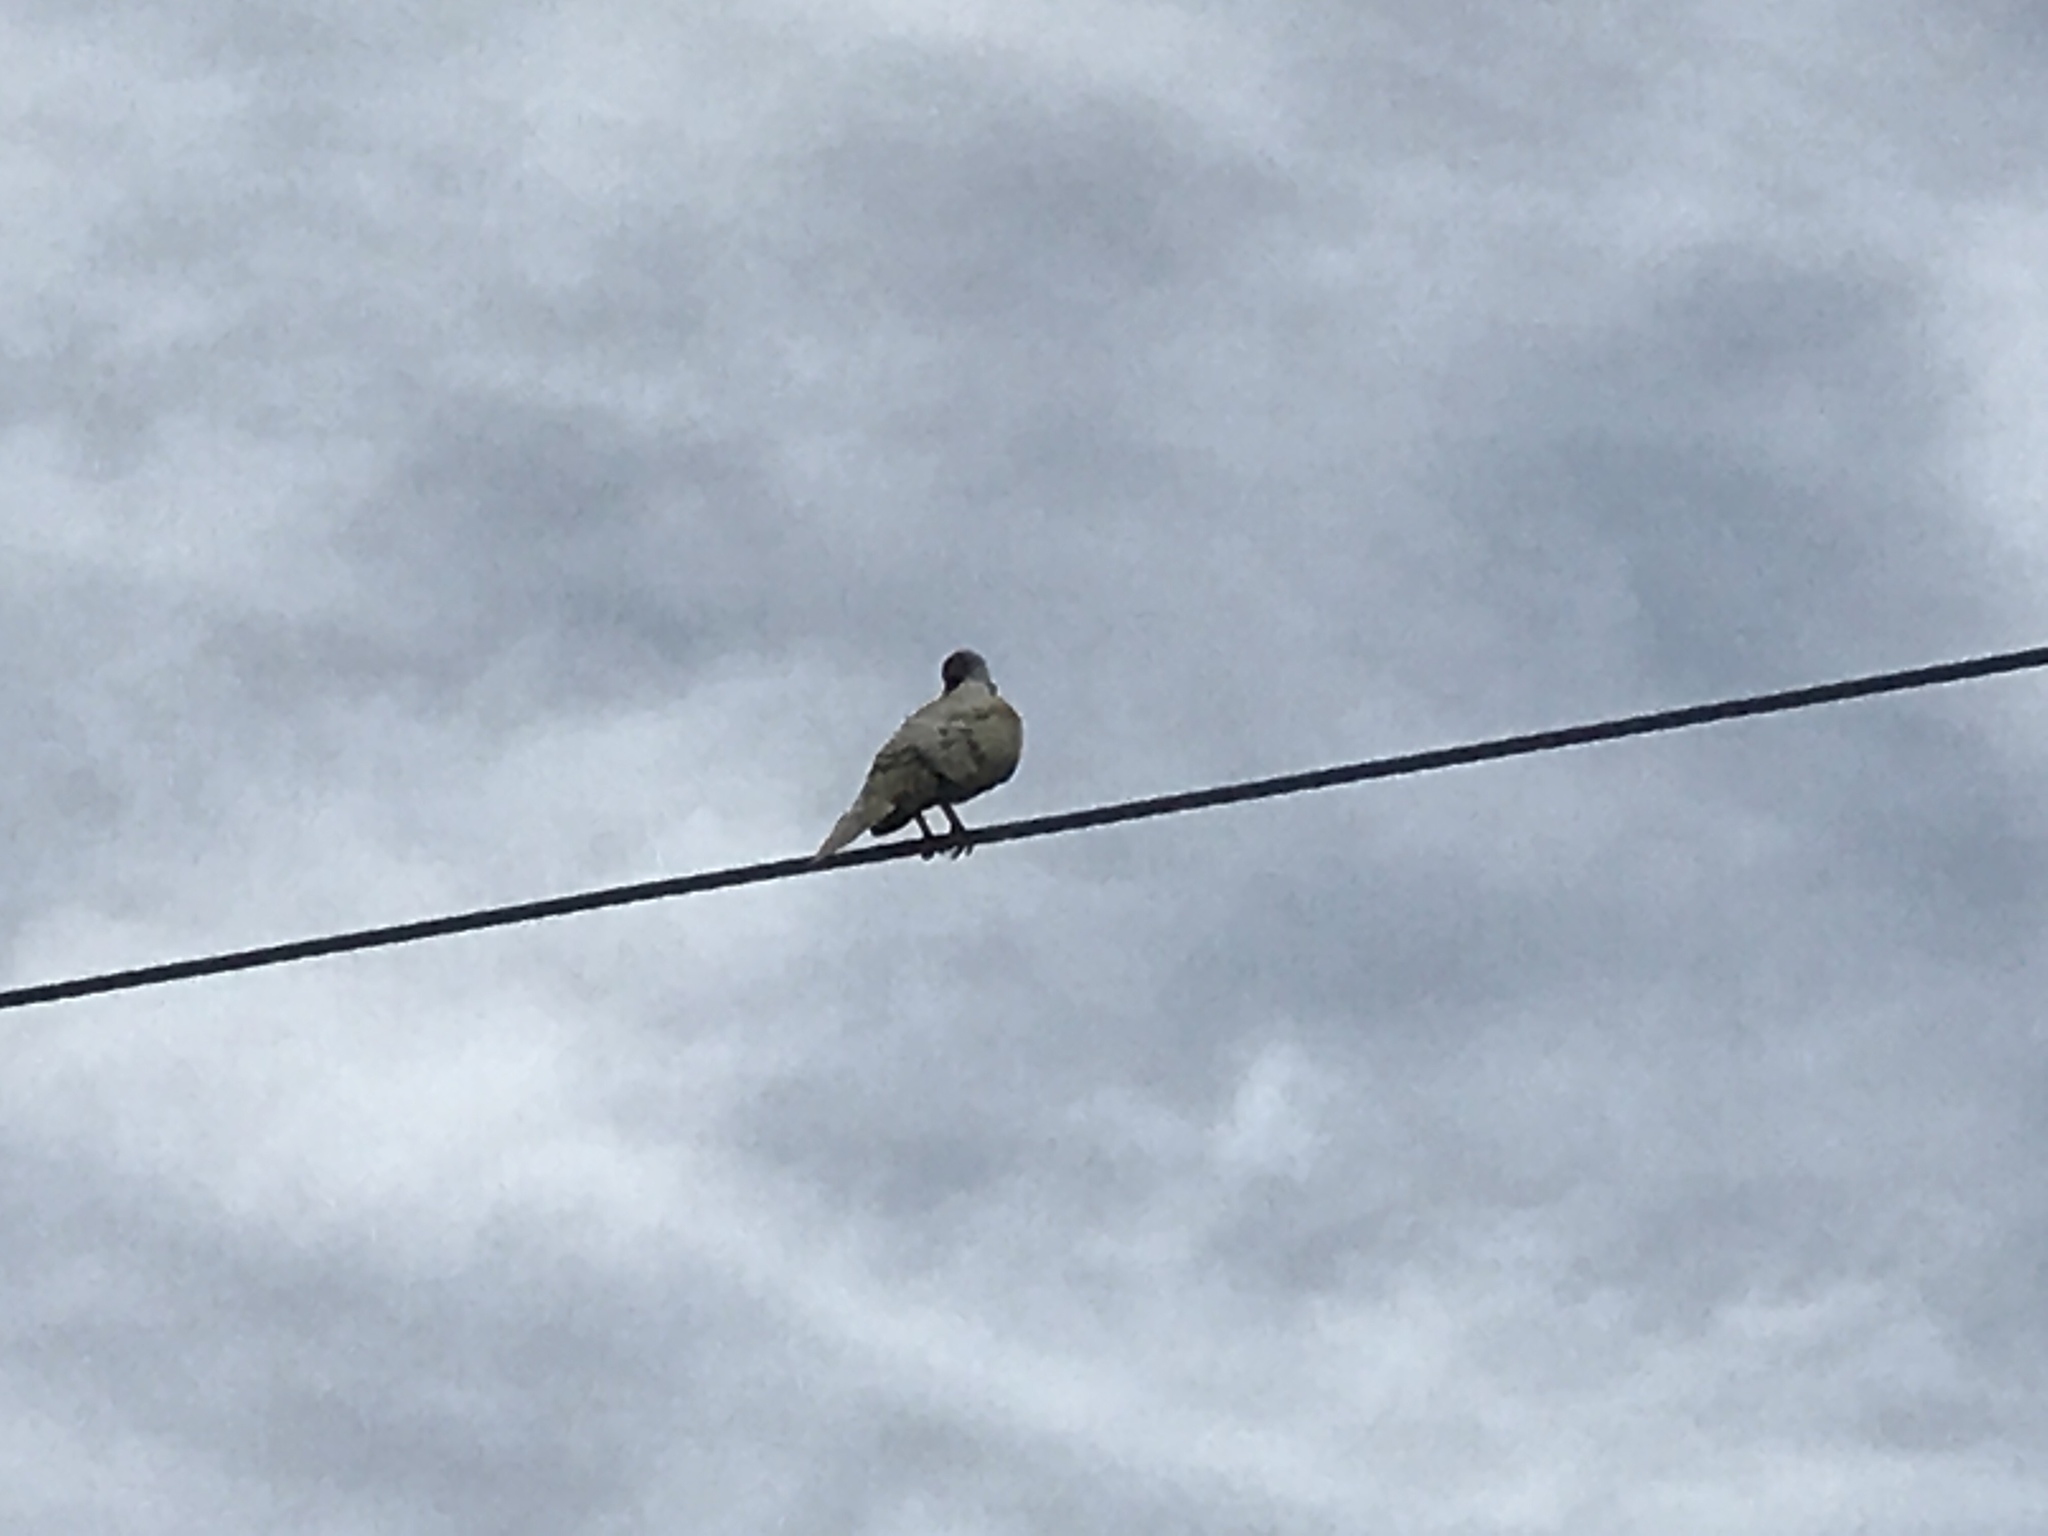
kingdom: Animalia
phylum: Chordata
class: Aves
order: Columbiformes
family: Columbidae
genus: Zenaida
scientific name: Zenaida asiatica
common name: White-winged dove
